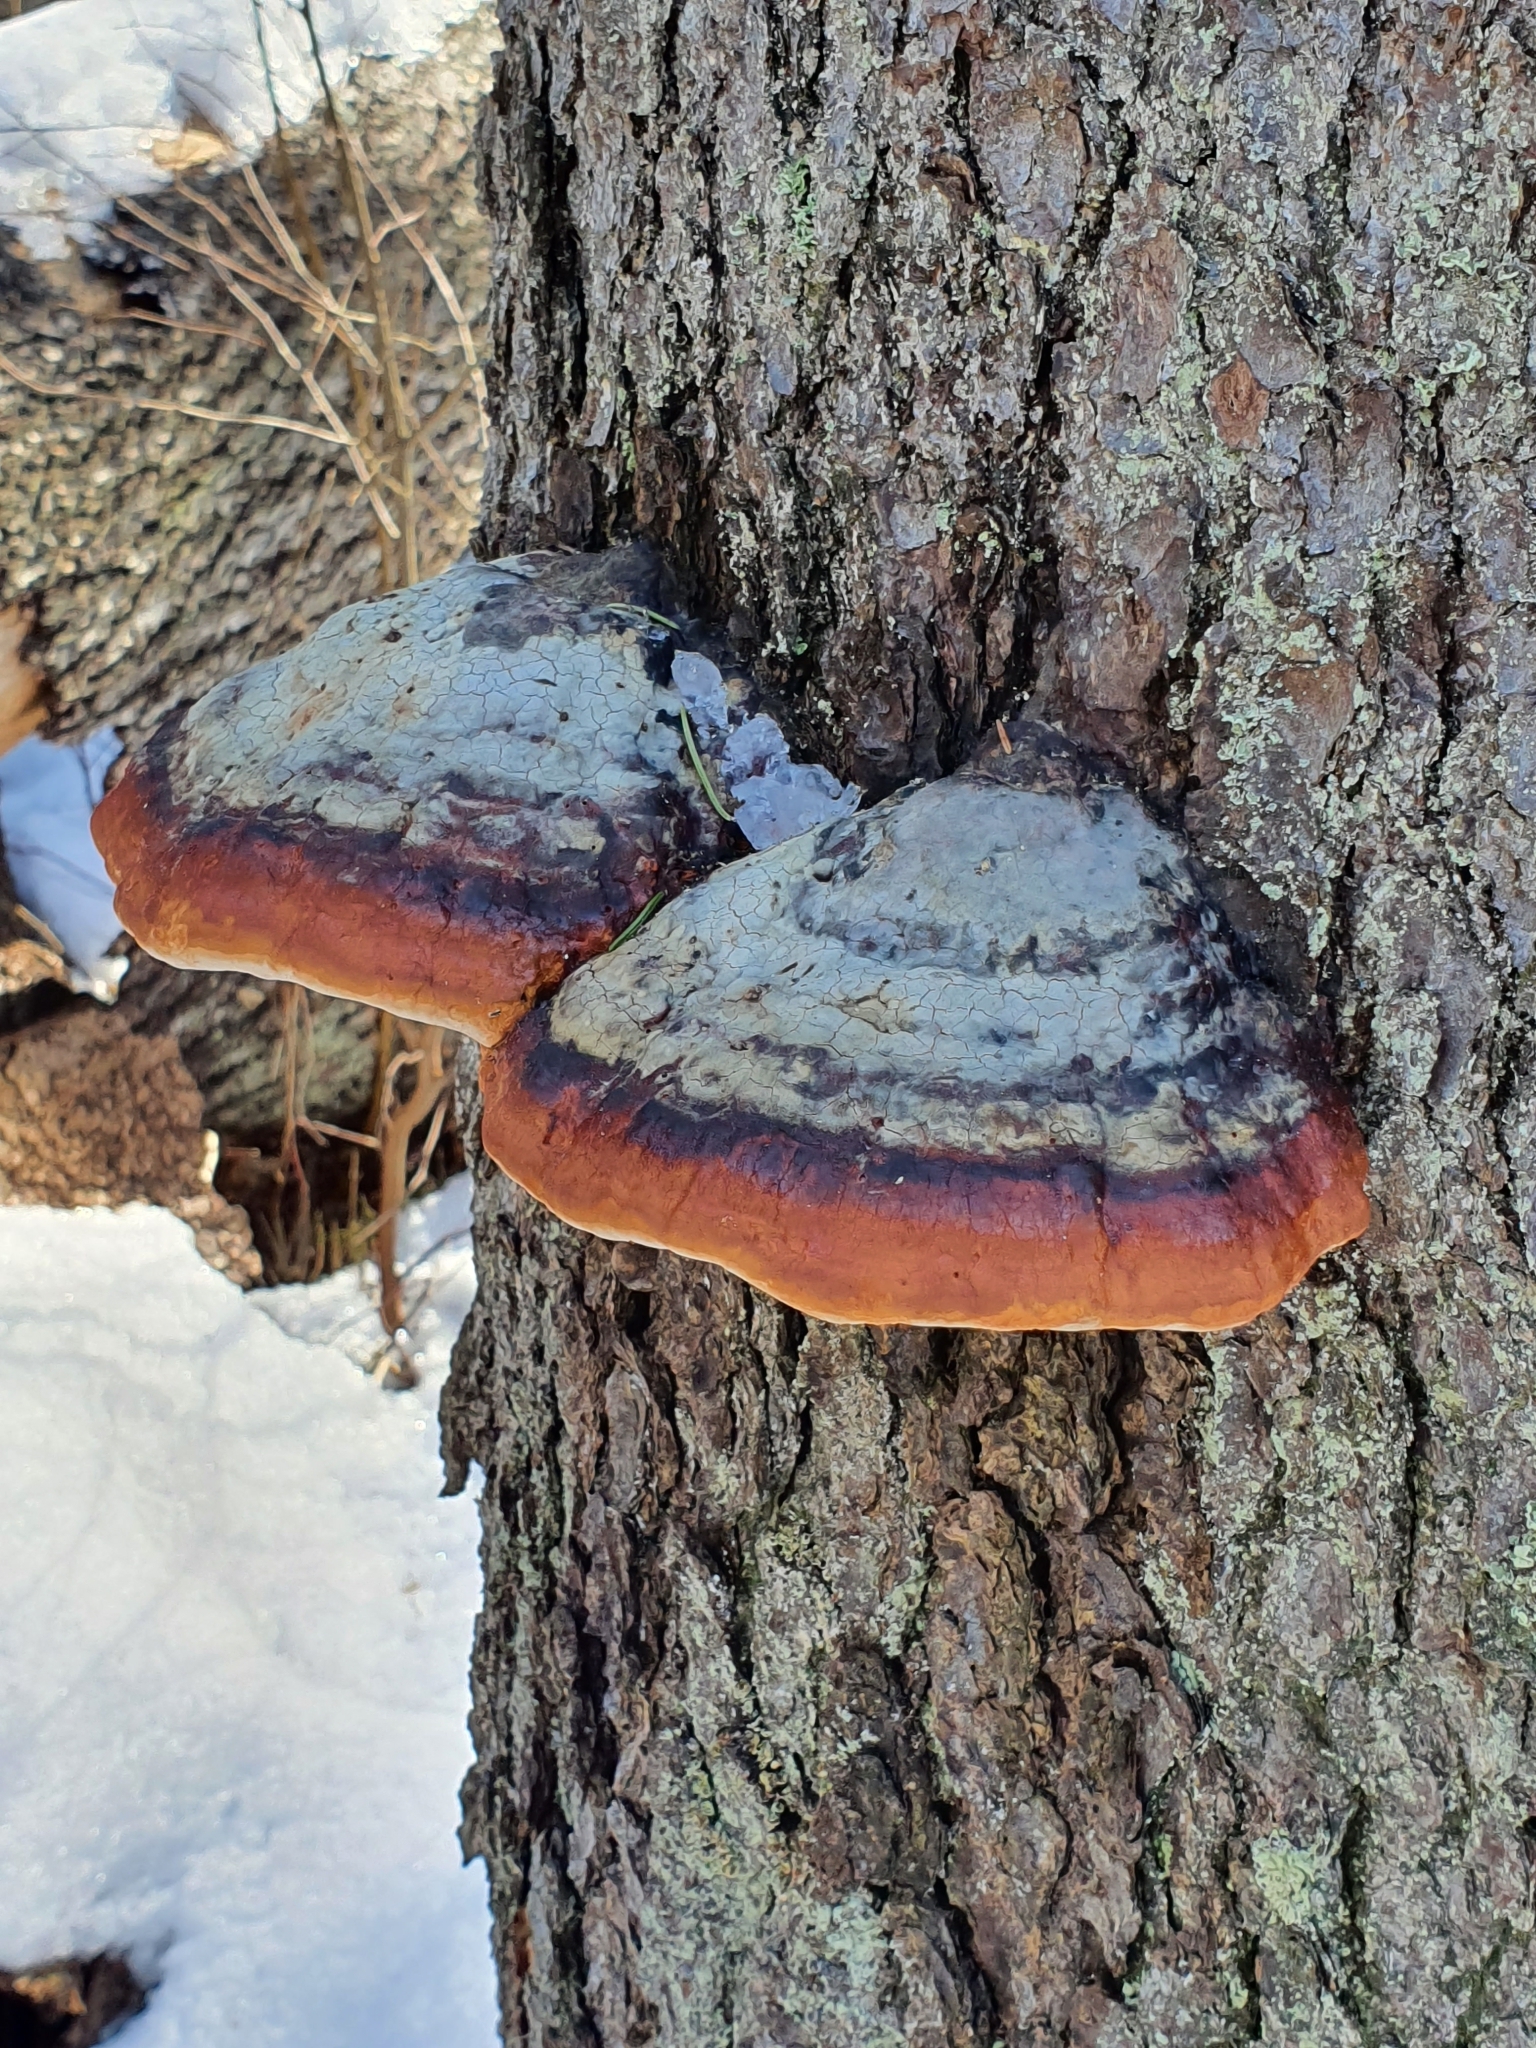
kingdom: Fungi
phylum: Basidiomycota
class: Agaricomycetes
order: Polyporales
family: Fomitopsidaceae
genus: Fomitopsis
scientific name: Fomitopsis pinicola
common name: Red-belted bracket
